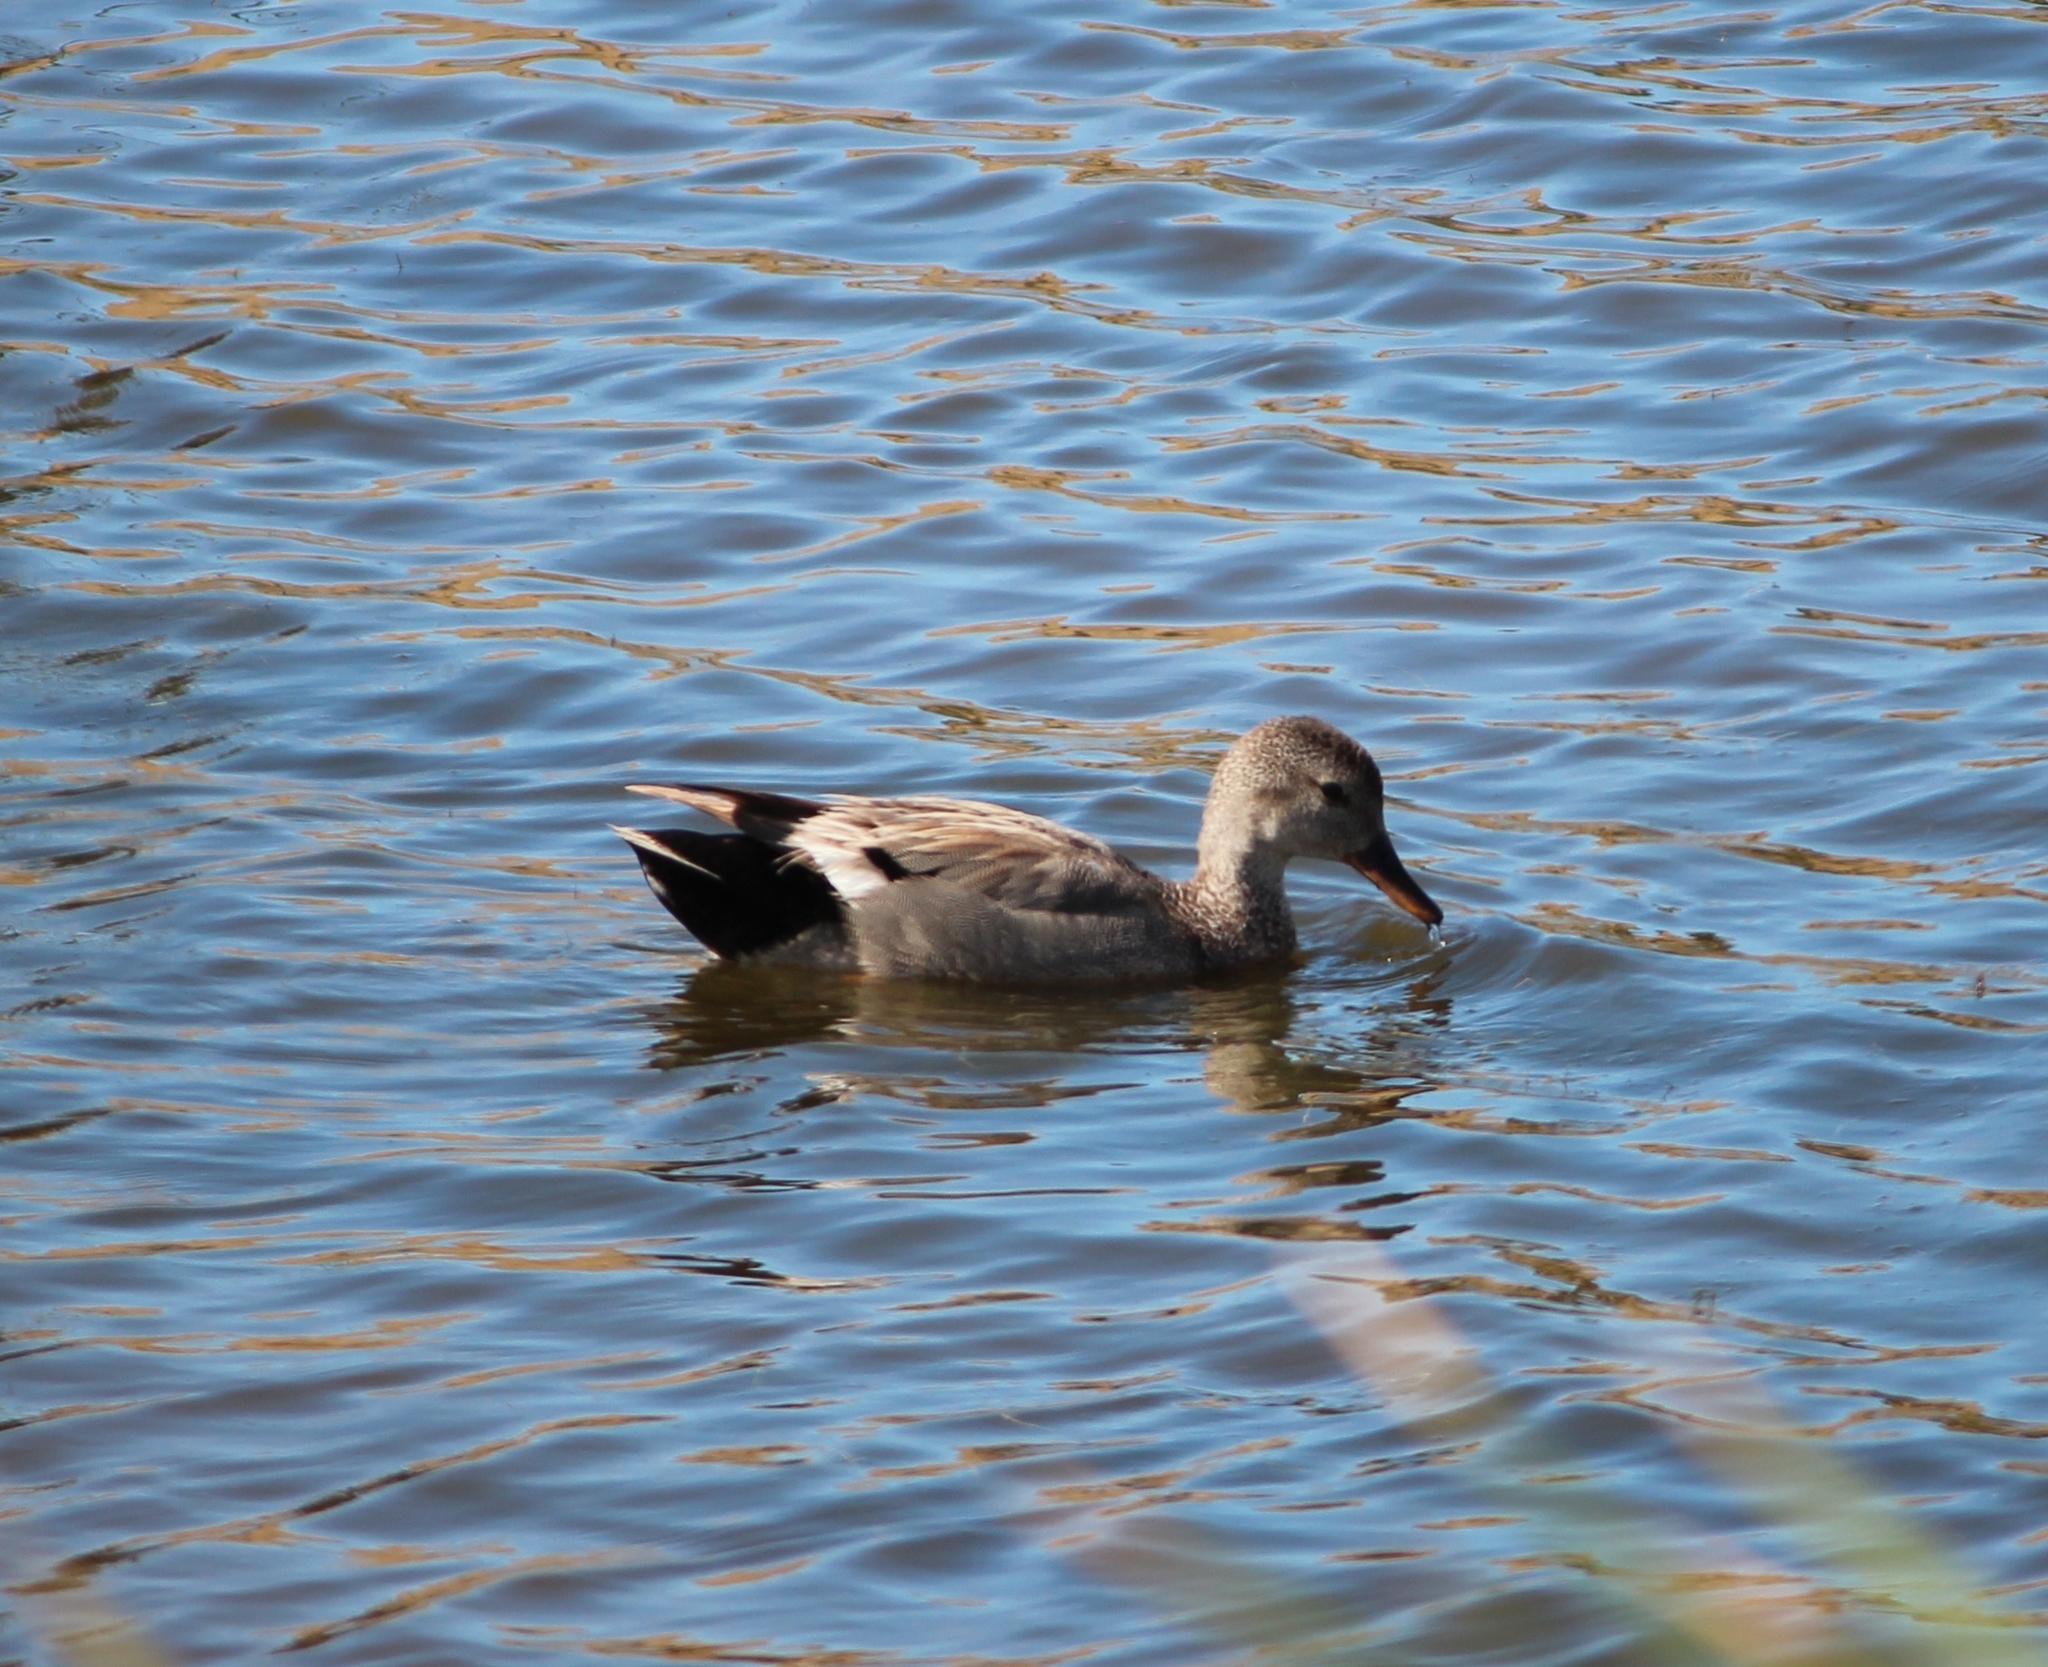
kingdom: Animalia
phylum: Chordata
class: Aves
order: Anseriformes
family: Anatidae
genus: Mareca
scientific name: Mareca strepera
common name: Gadwall
